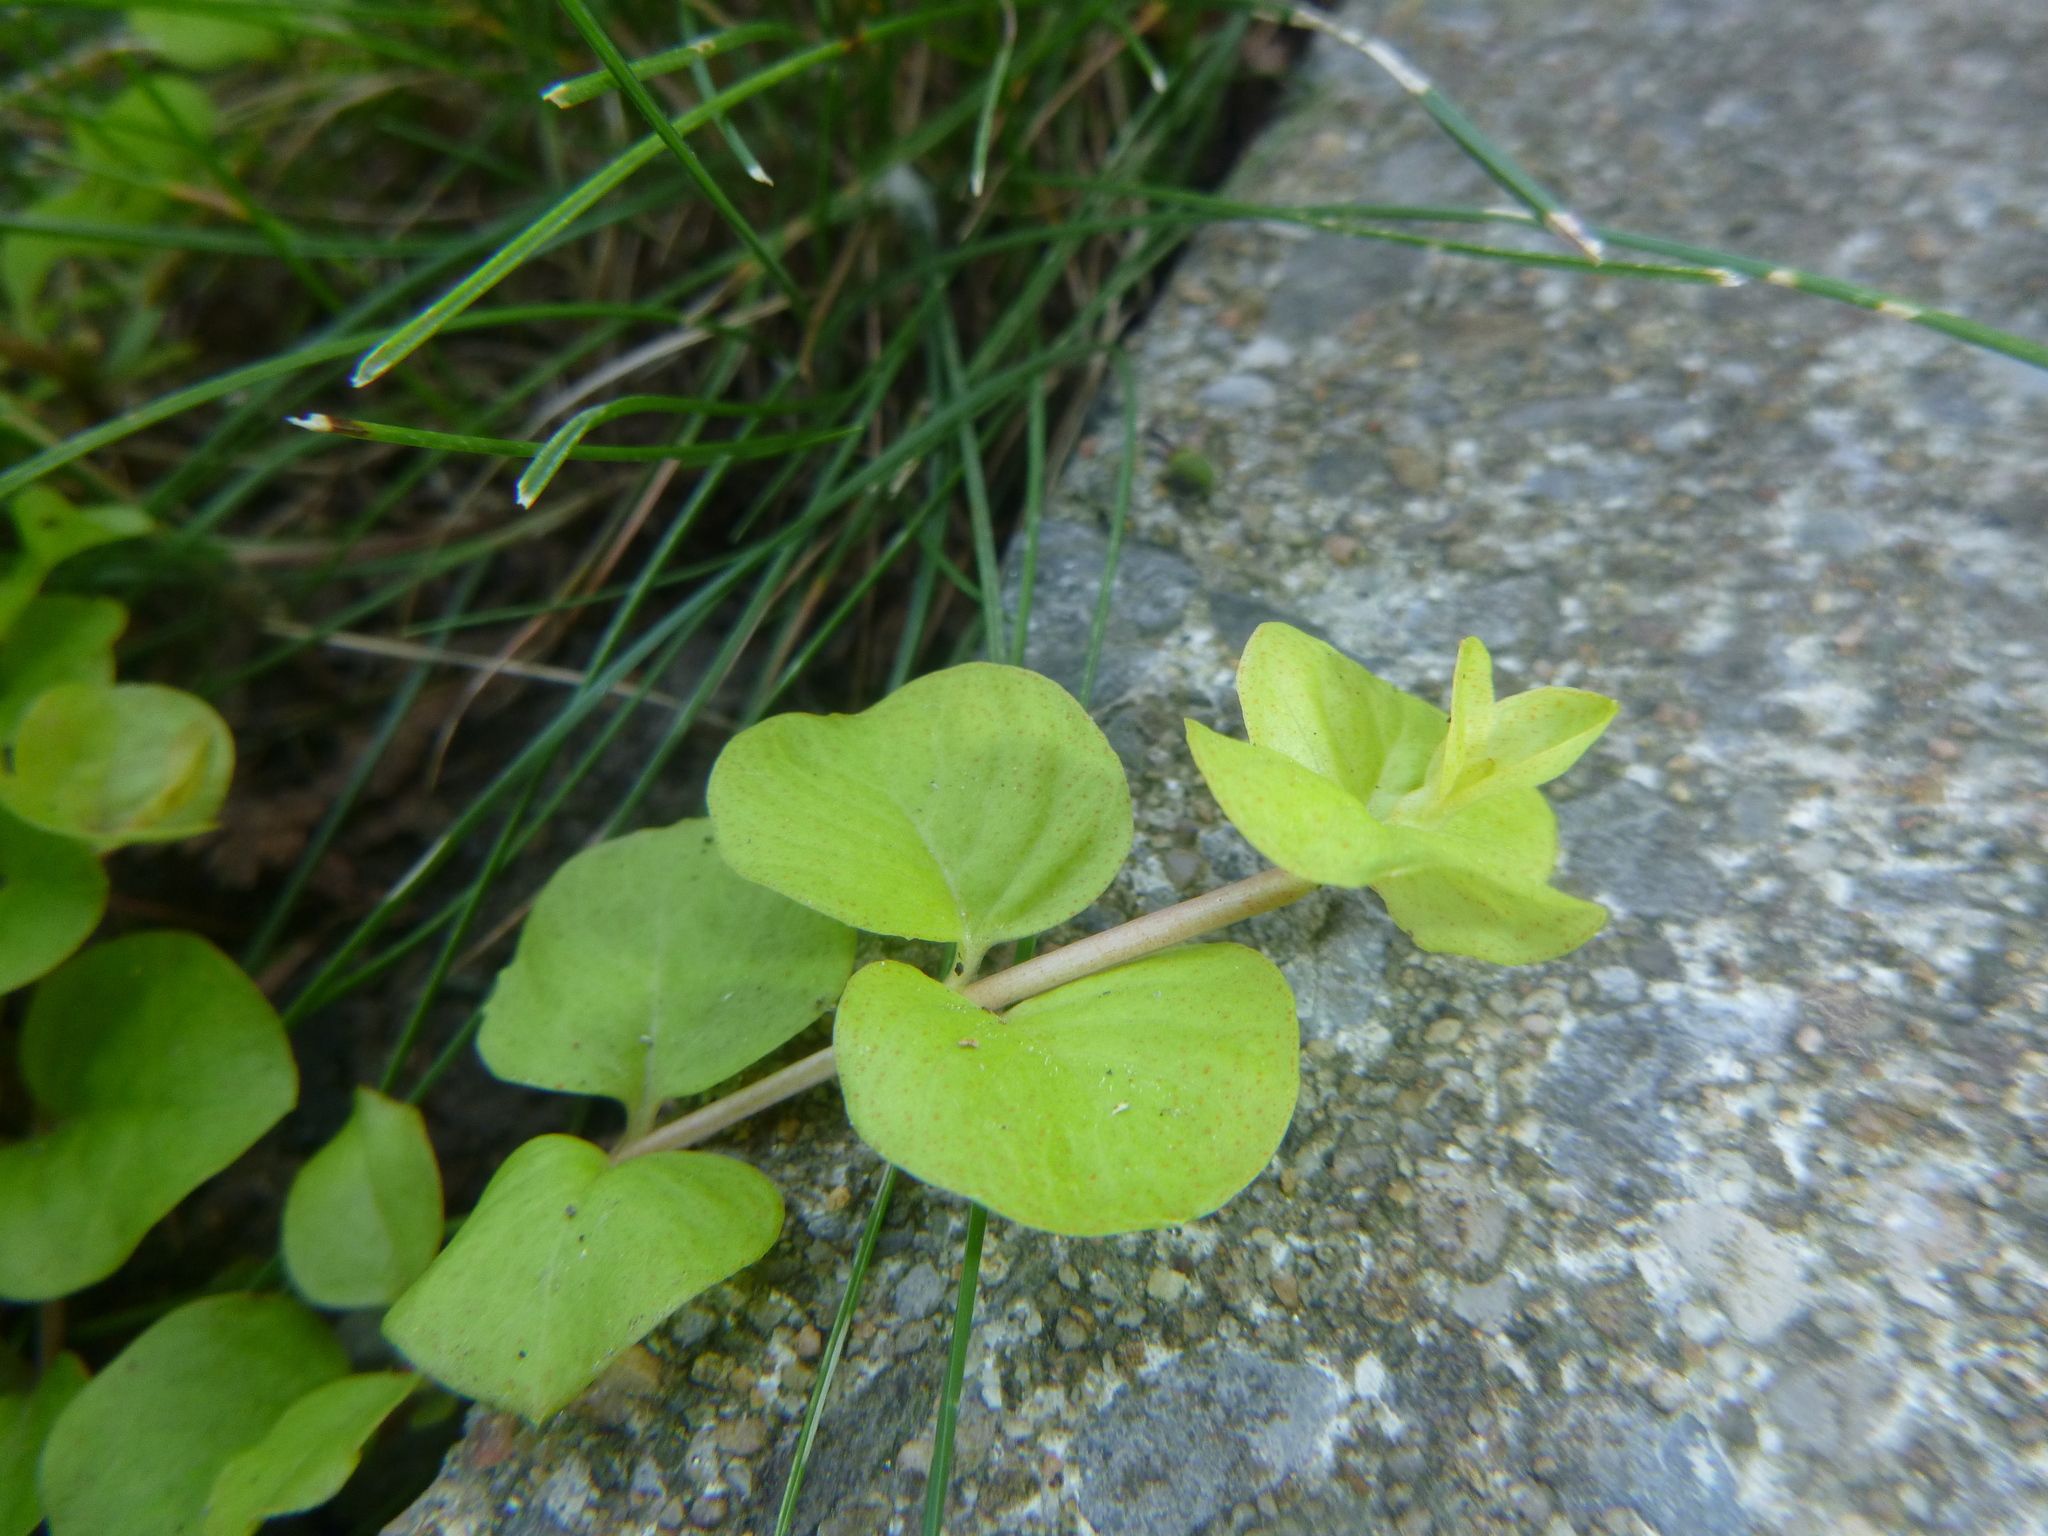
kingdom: Plantae
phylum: Tracheophyta
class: Magnoliopsida
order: Ericales
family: Primulaceae
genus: Lysimachia
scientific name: Lysimachia nummularia
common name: Moneywort
